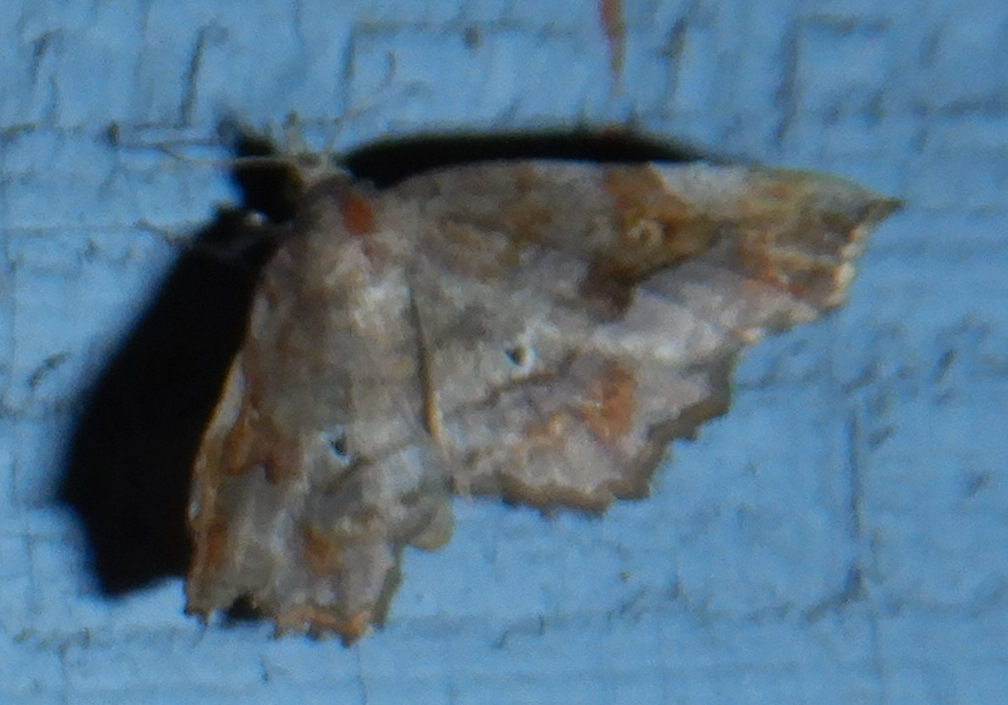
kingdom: Animalia
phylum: Arthropoda
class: Insecta
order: Lepidoptera
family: Erebidae
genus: Pangrapta
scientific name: Pangrapta decoralis
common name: Decorated owlet
